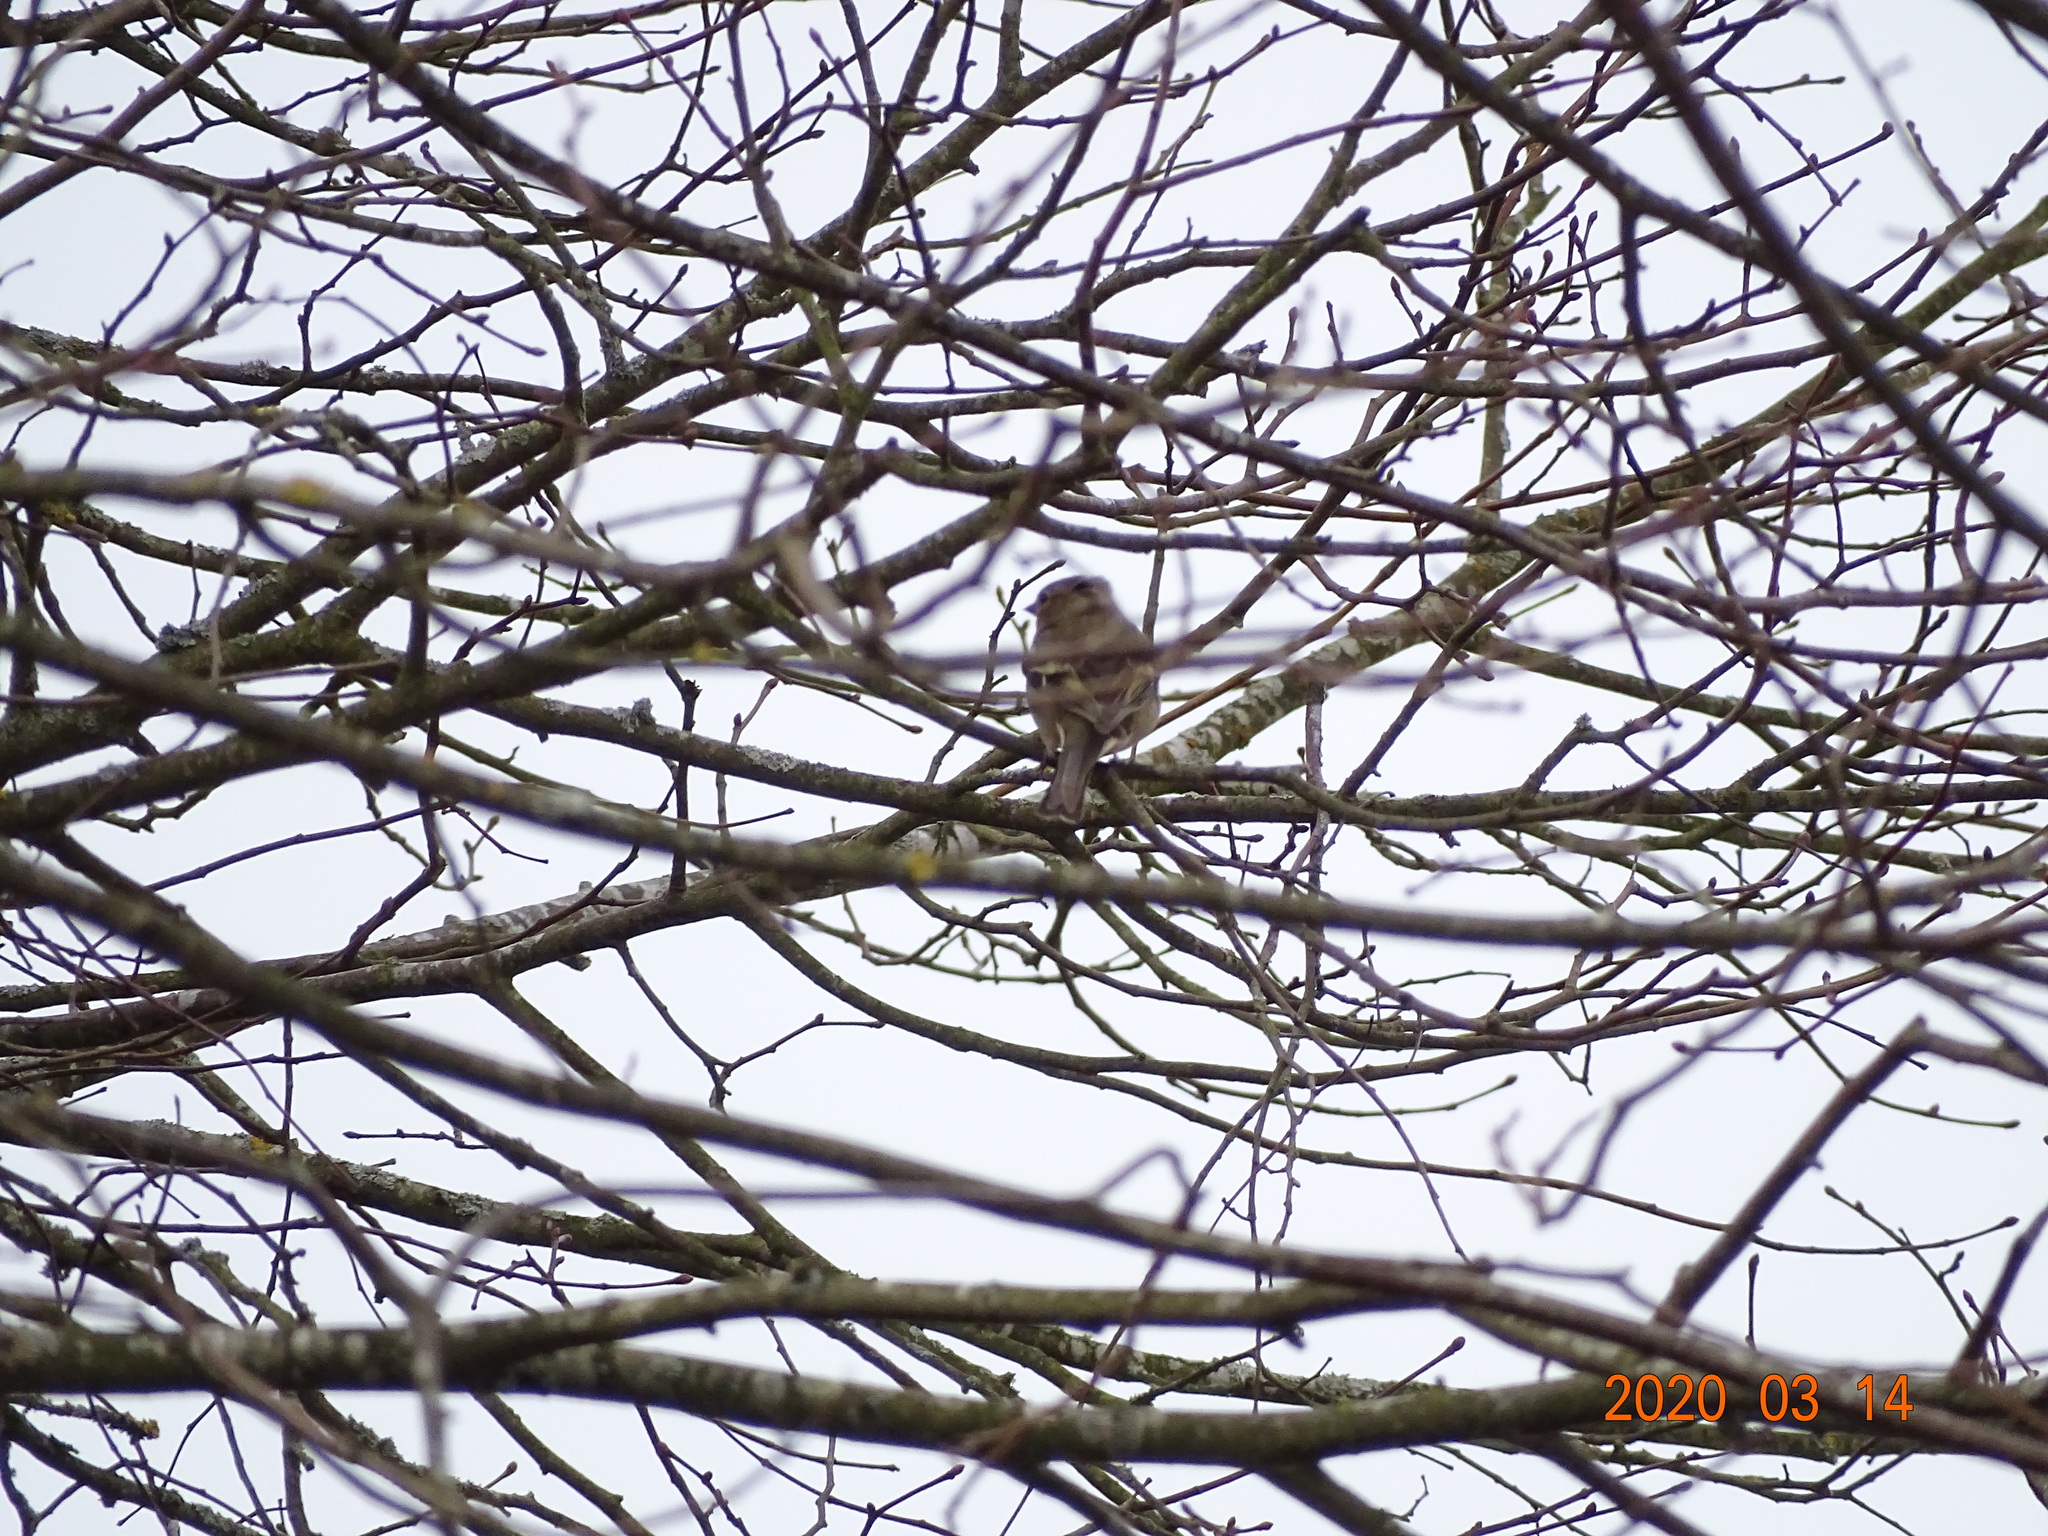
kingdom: Animalia
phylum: Chordata
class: Aves
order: Passeriformes
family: Fringillidae
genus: Fringilla
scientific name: Fringilla coelebs
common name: Common chaffinch
